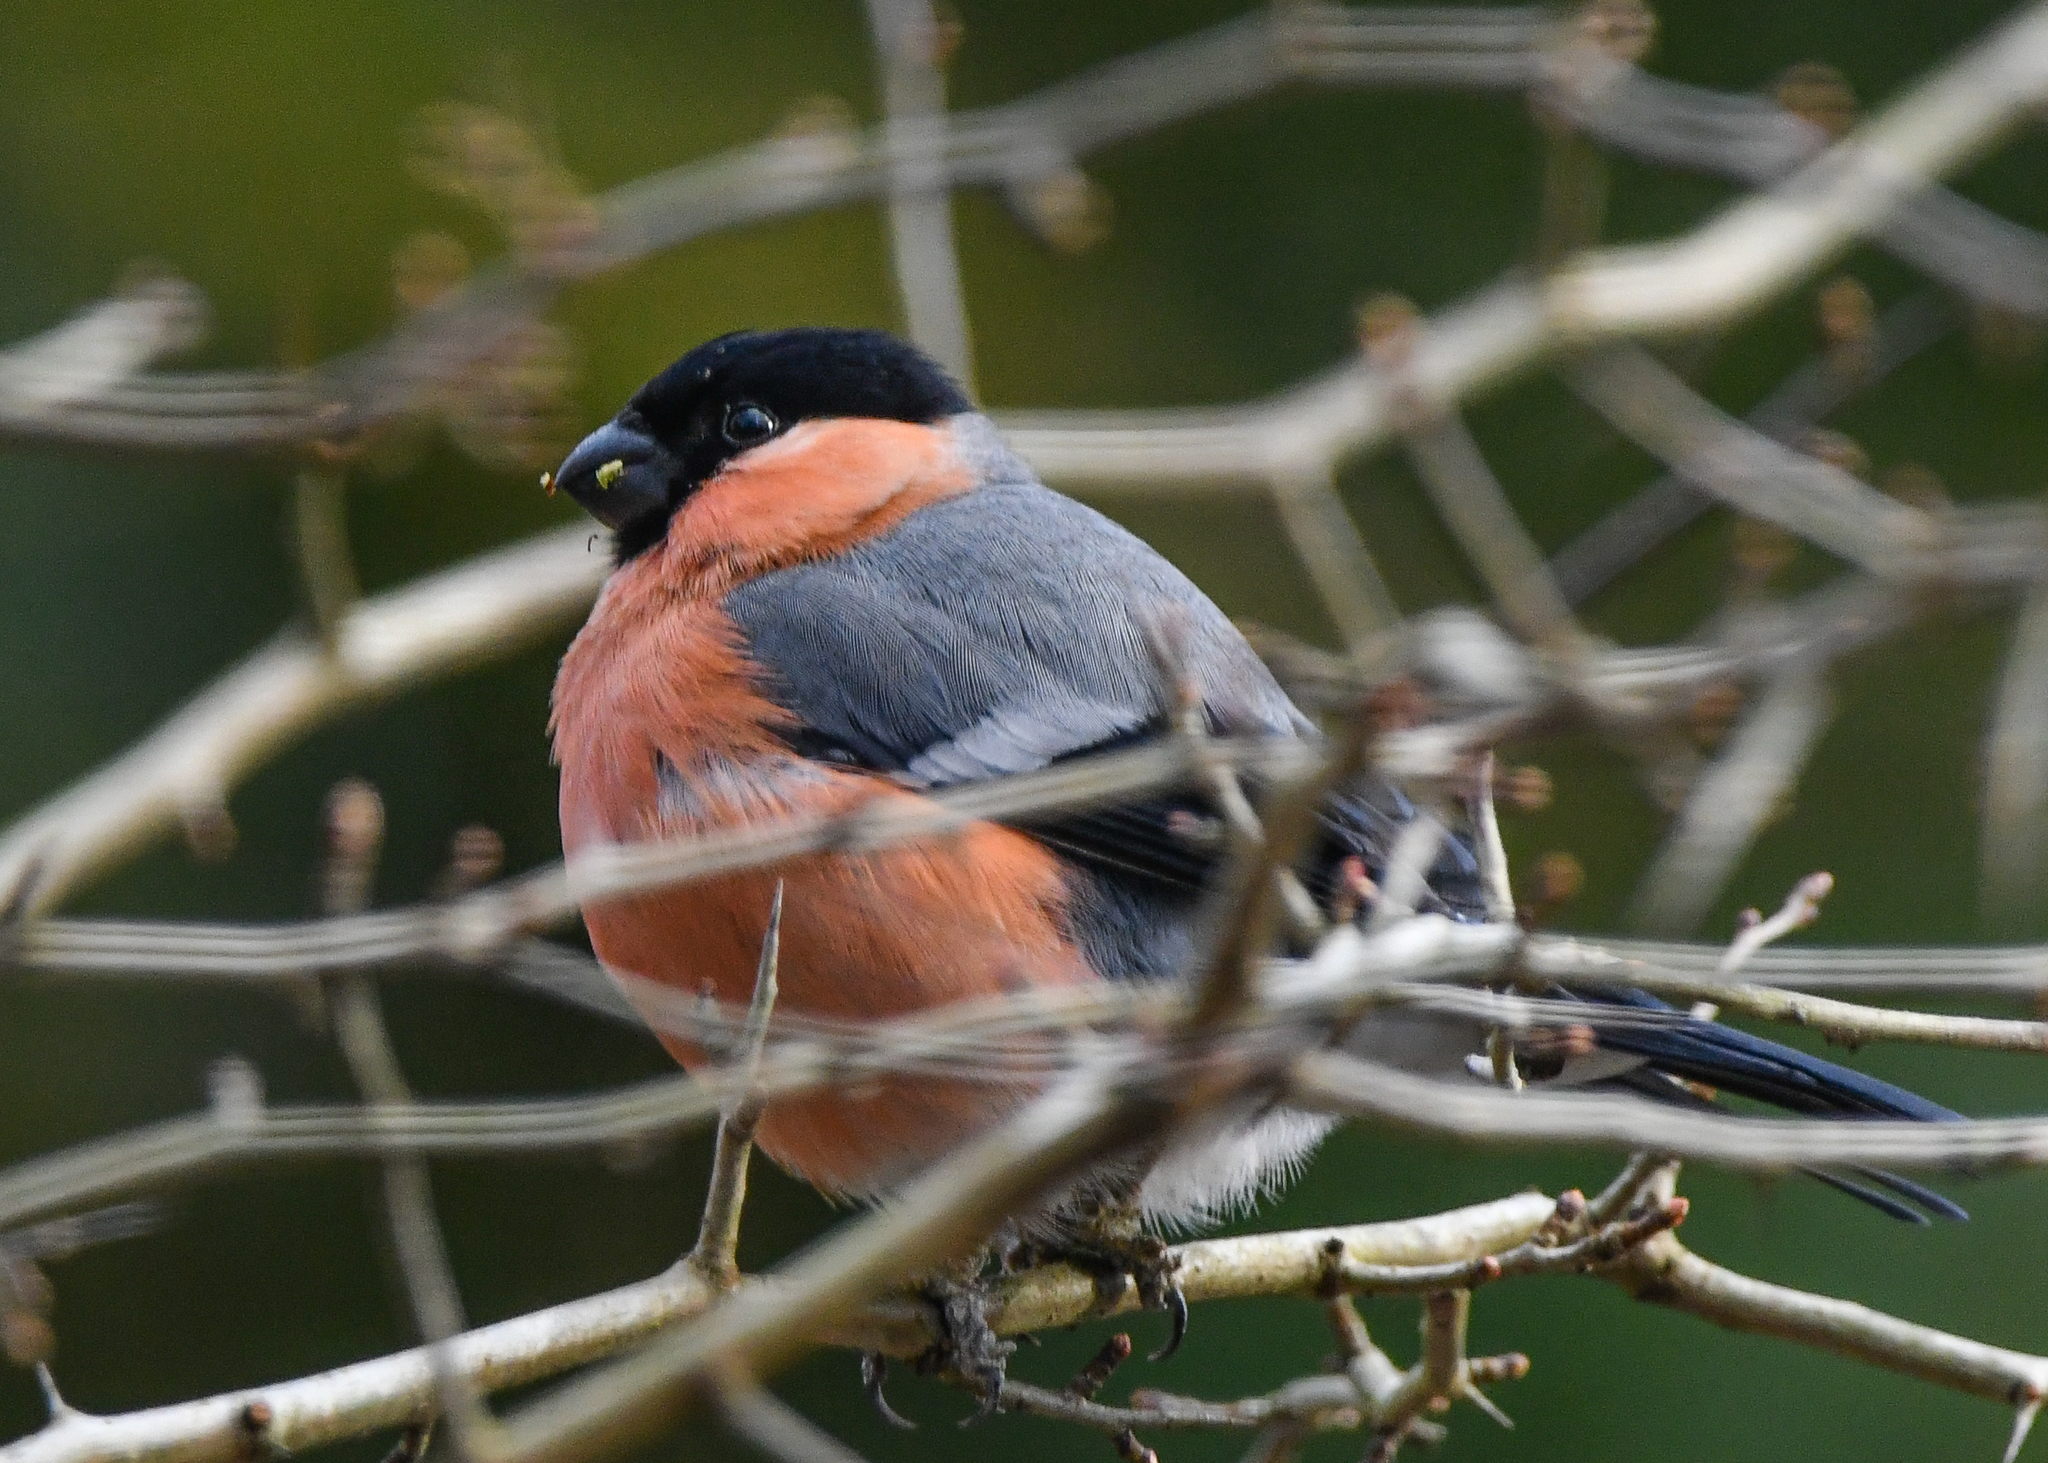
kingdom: Animalia
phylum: Chordata
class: Aves
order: Passeriformes
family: Fringillidae
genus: Pyrrhula
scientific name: Pyrrhula pyrrhula
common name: Eurasian bullfinch
